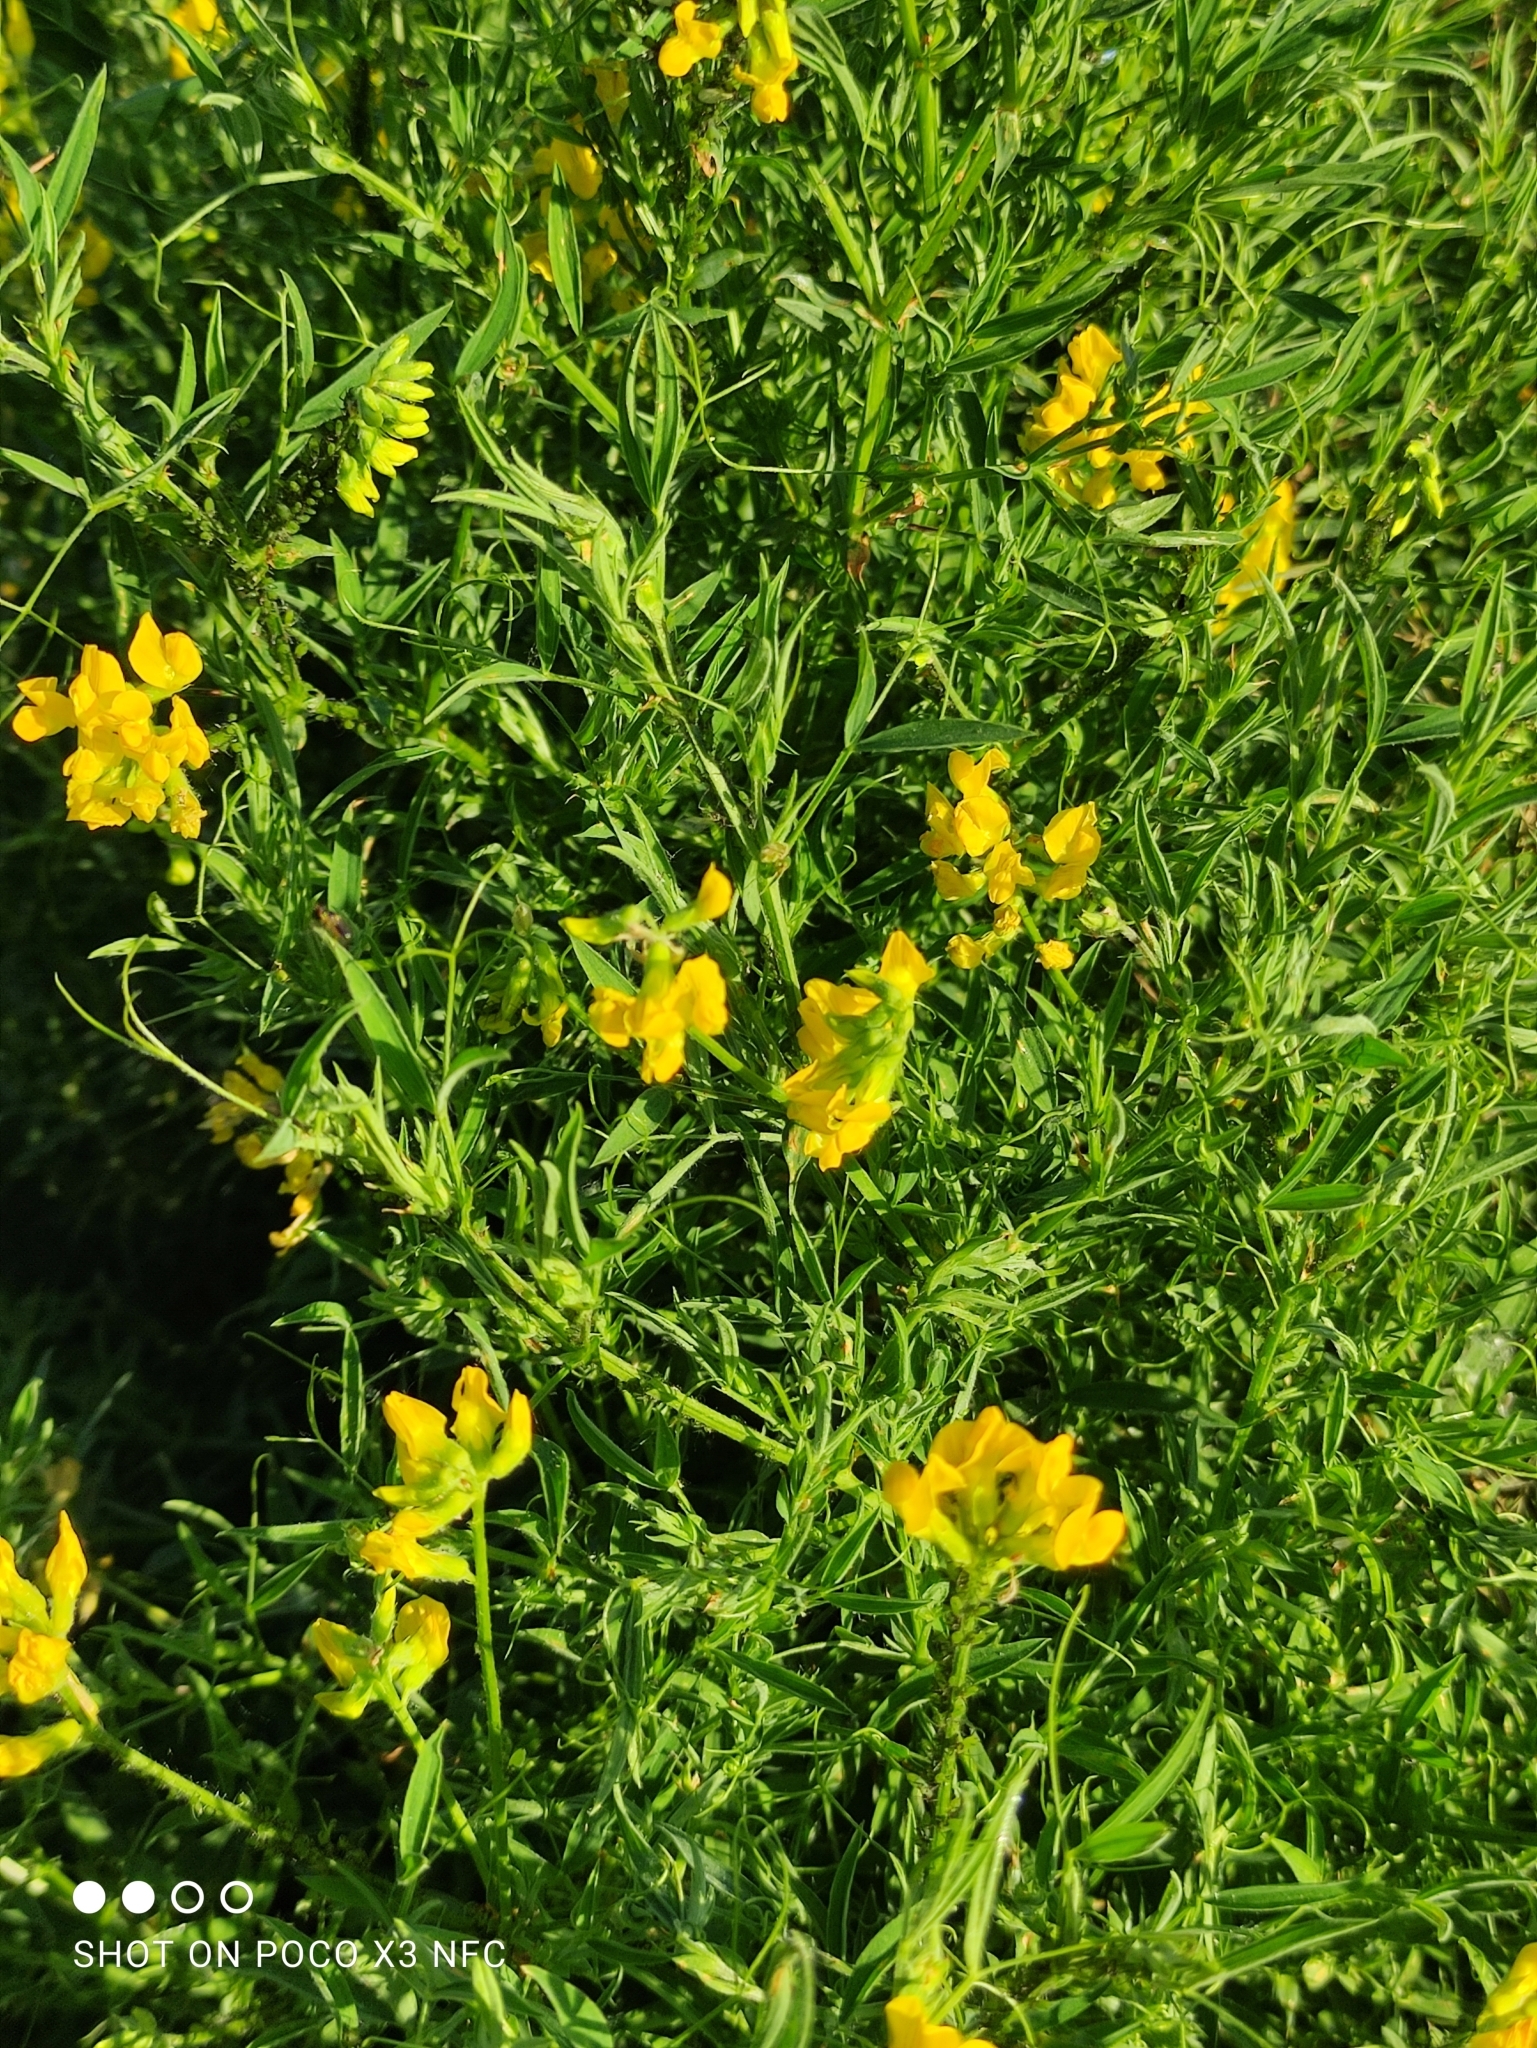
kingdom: Plantae
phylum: Tracheophyta
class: Magnoliopsida
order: Fabales
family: Fabaceae
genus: Lathyrus
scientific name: Lathyrus pratensis
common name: Meadow vetchling
